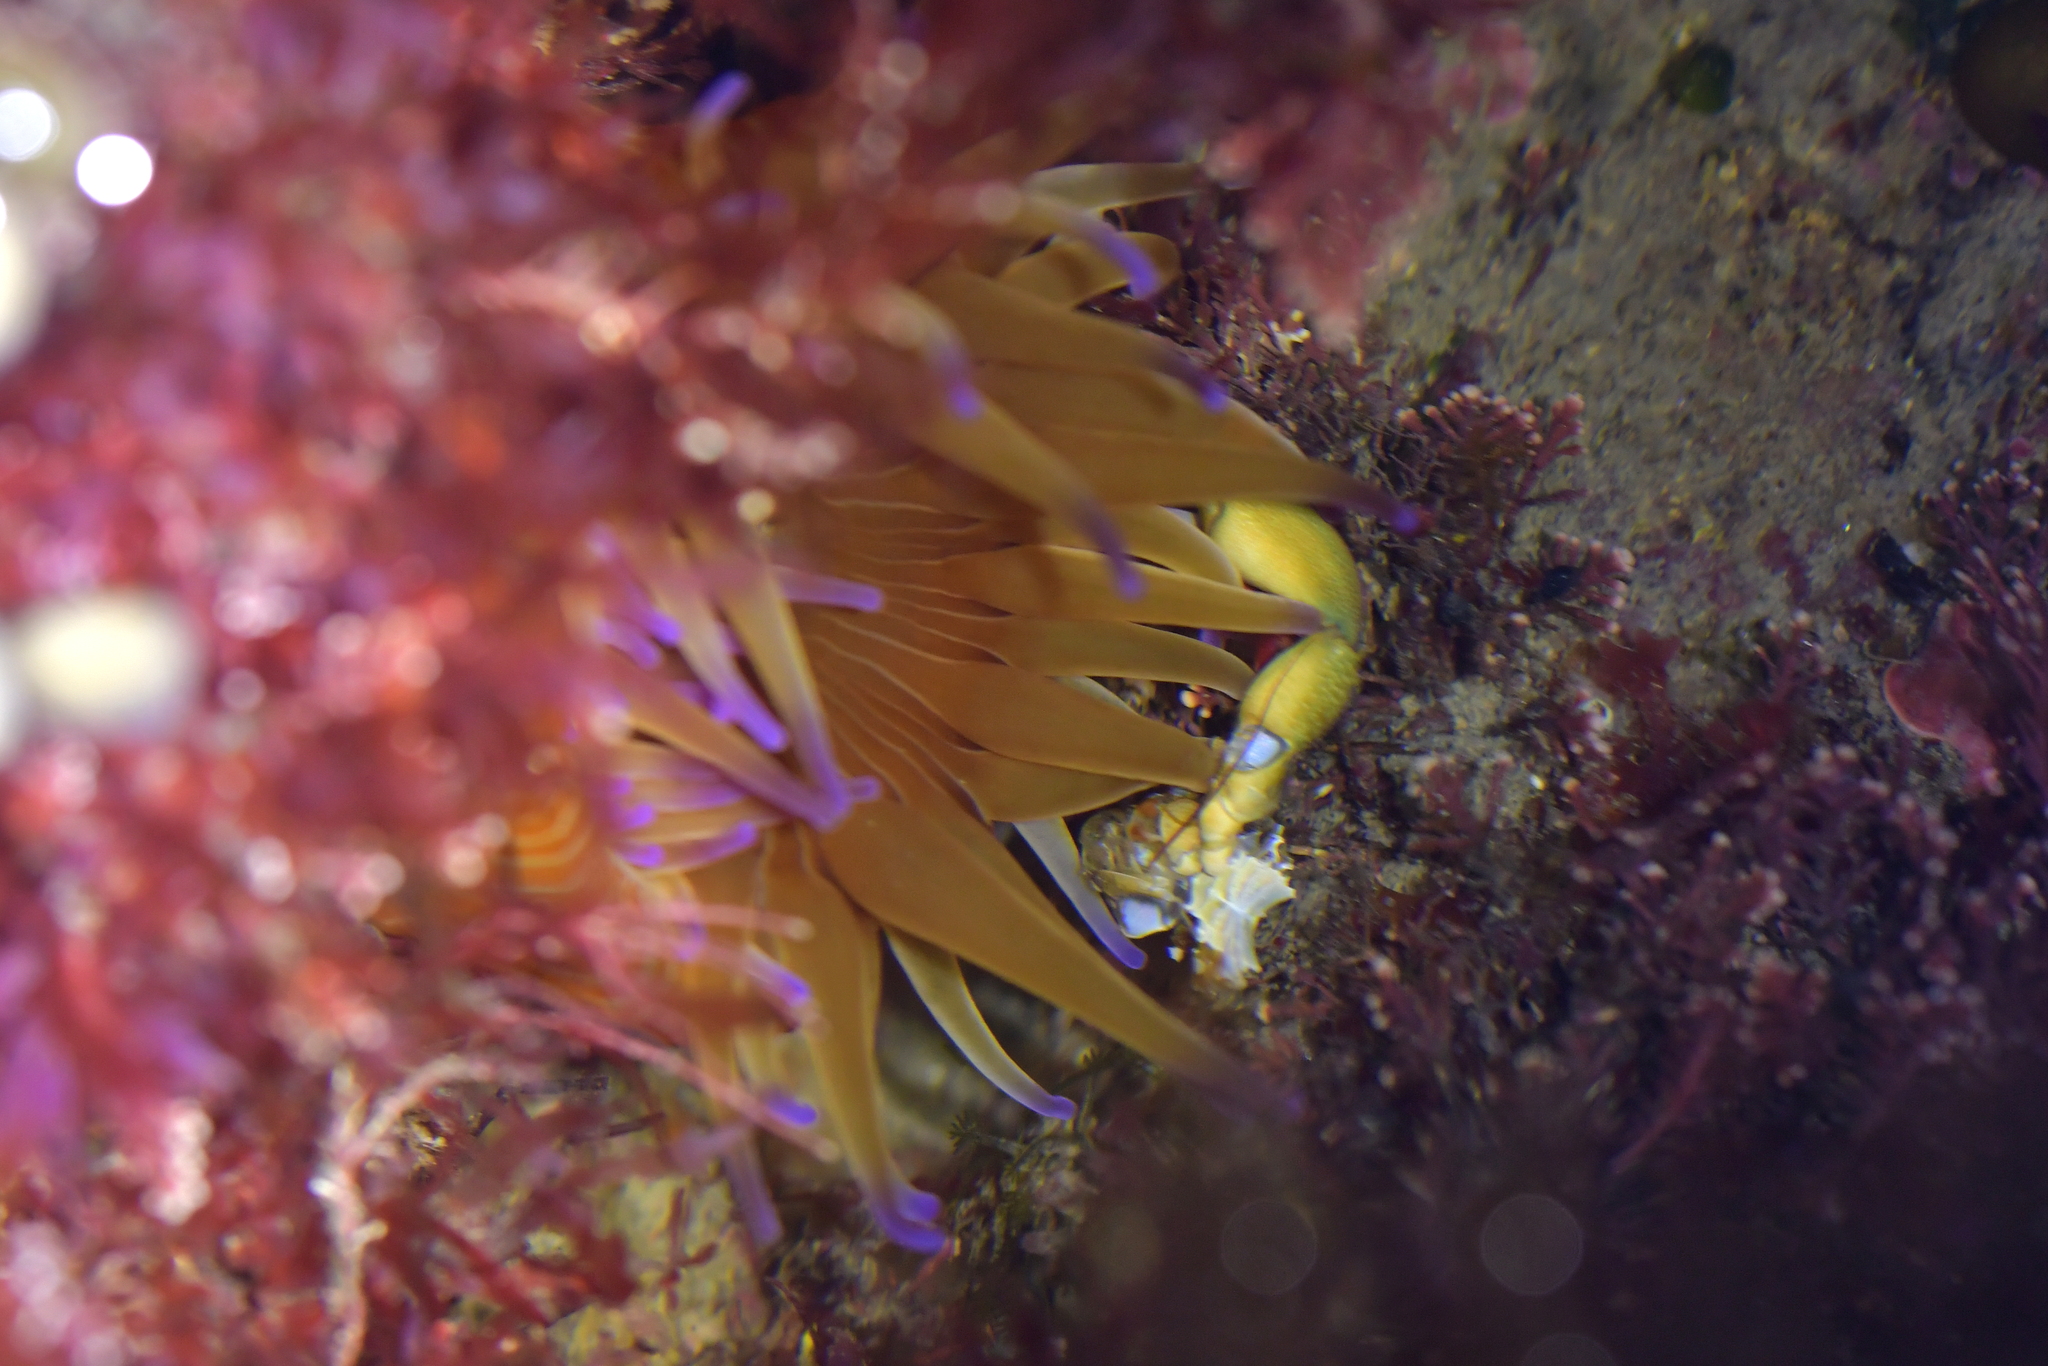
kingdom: Animalia
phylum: Cnidaria
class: Anthozoa
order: Actiniaria
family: Actiniidae
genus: Epiactis
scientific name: Epiactis thompsoni
